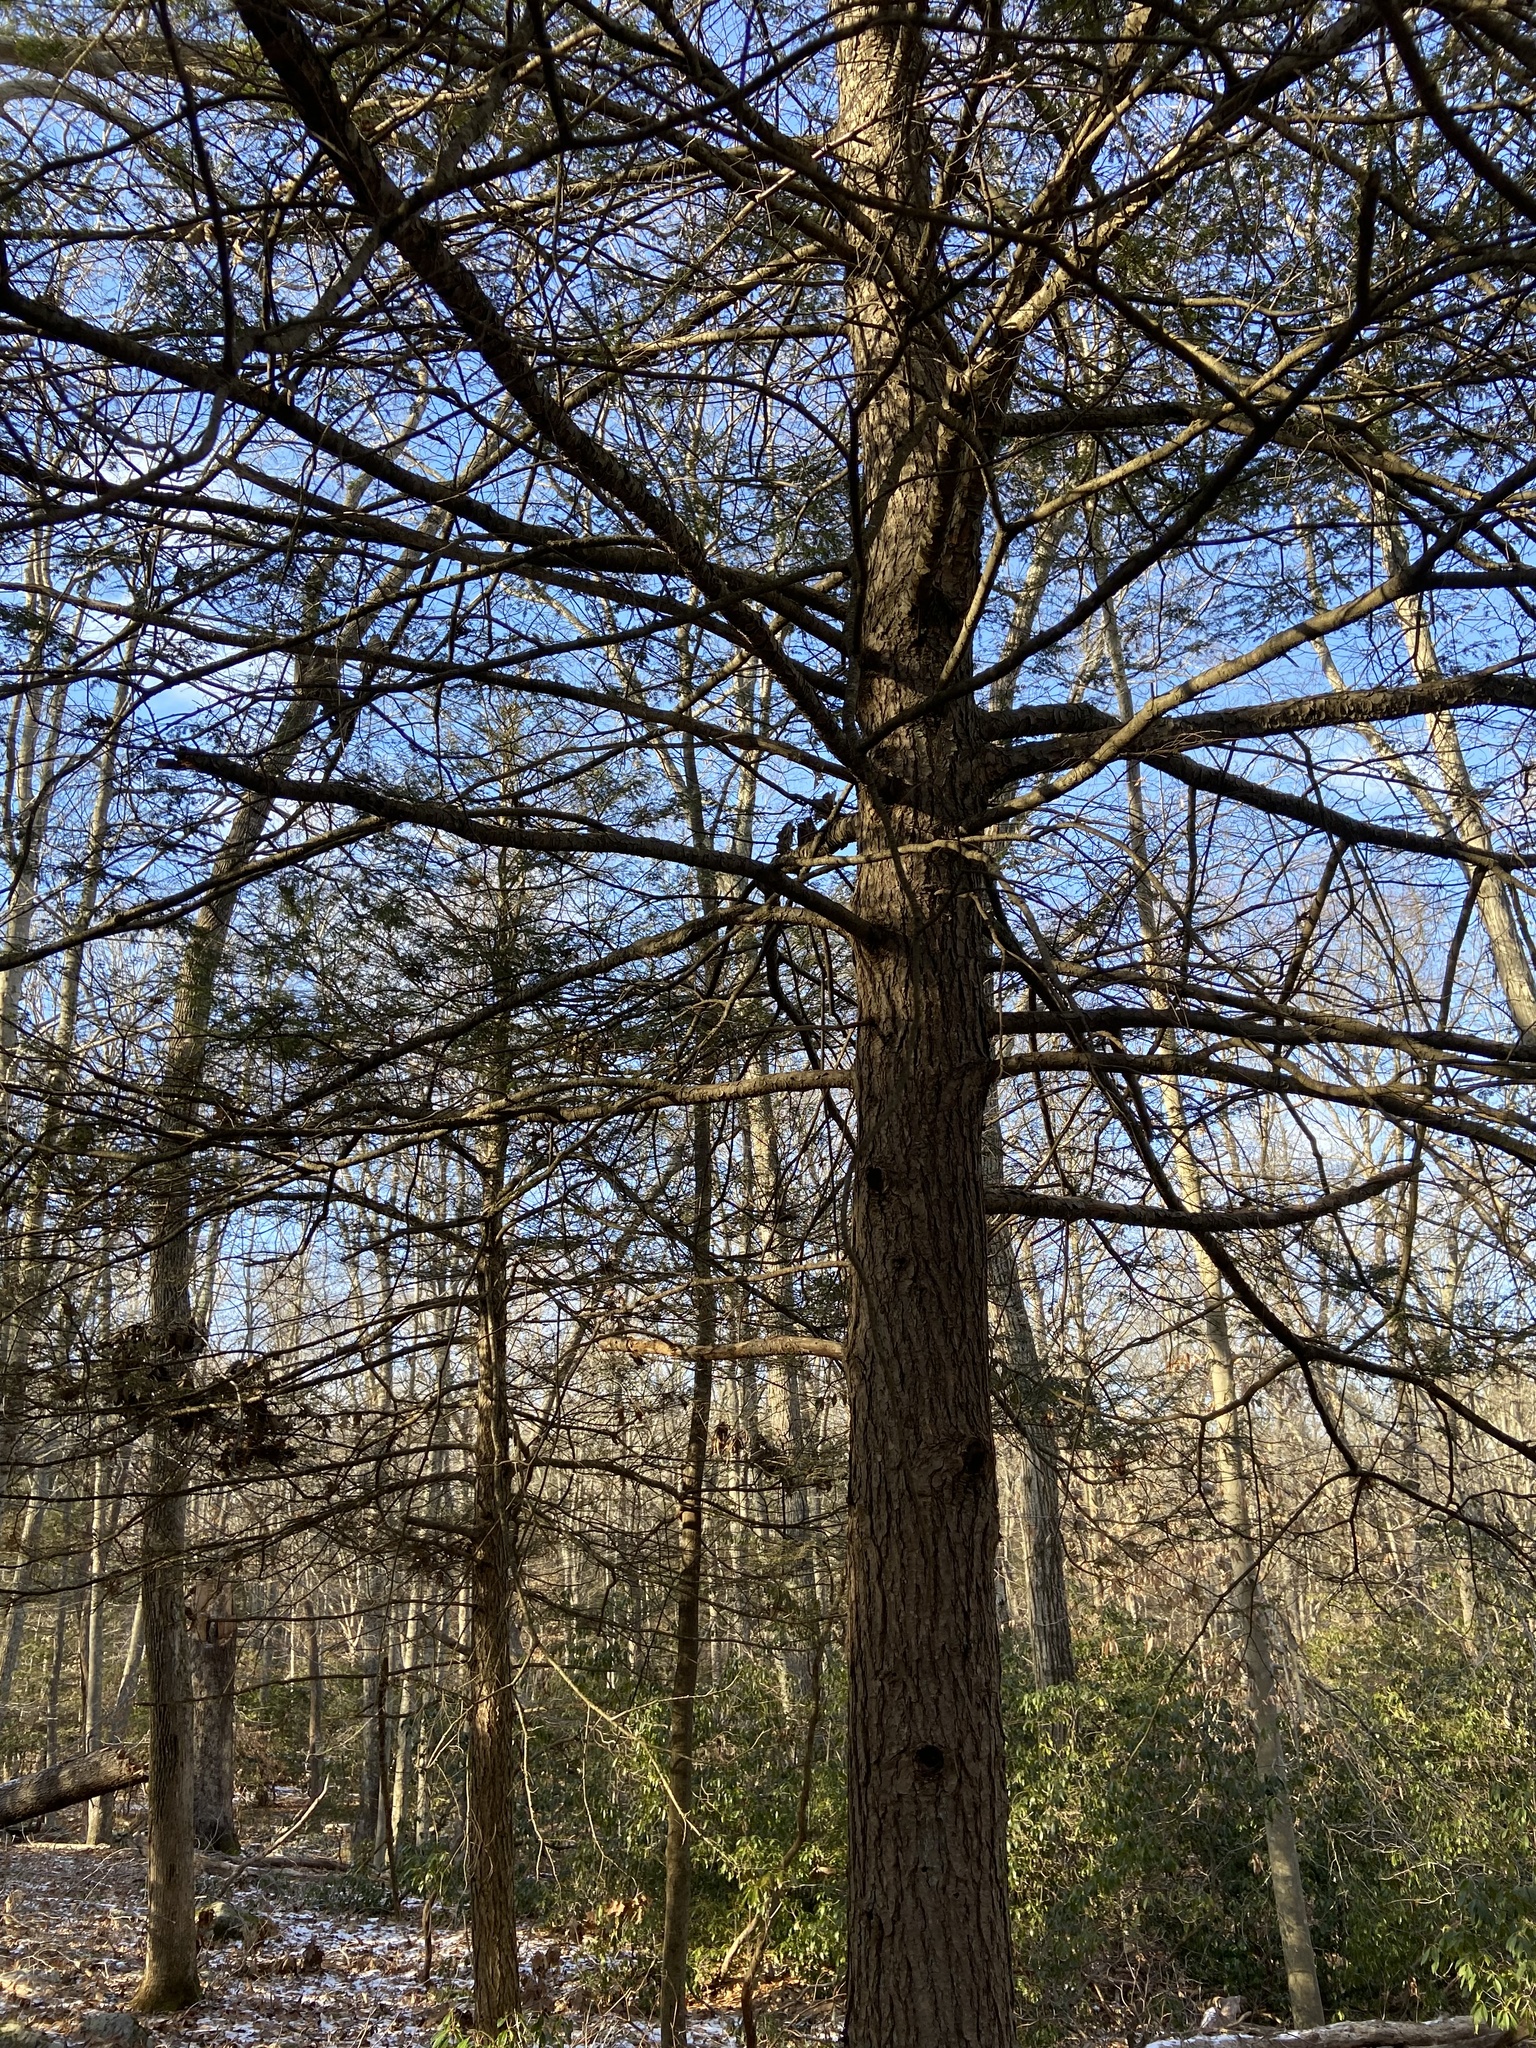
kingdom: Plantae
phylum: Tracheophyta
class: Pinopsida
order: Pinales
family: Pinaceae
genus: Tsuga
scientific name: Tsuga canadensis
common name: Eastern hemlock
